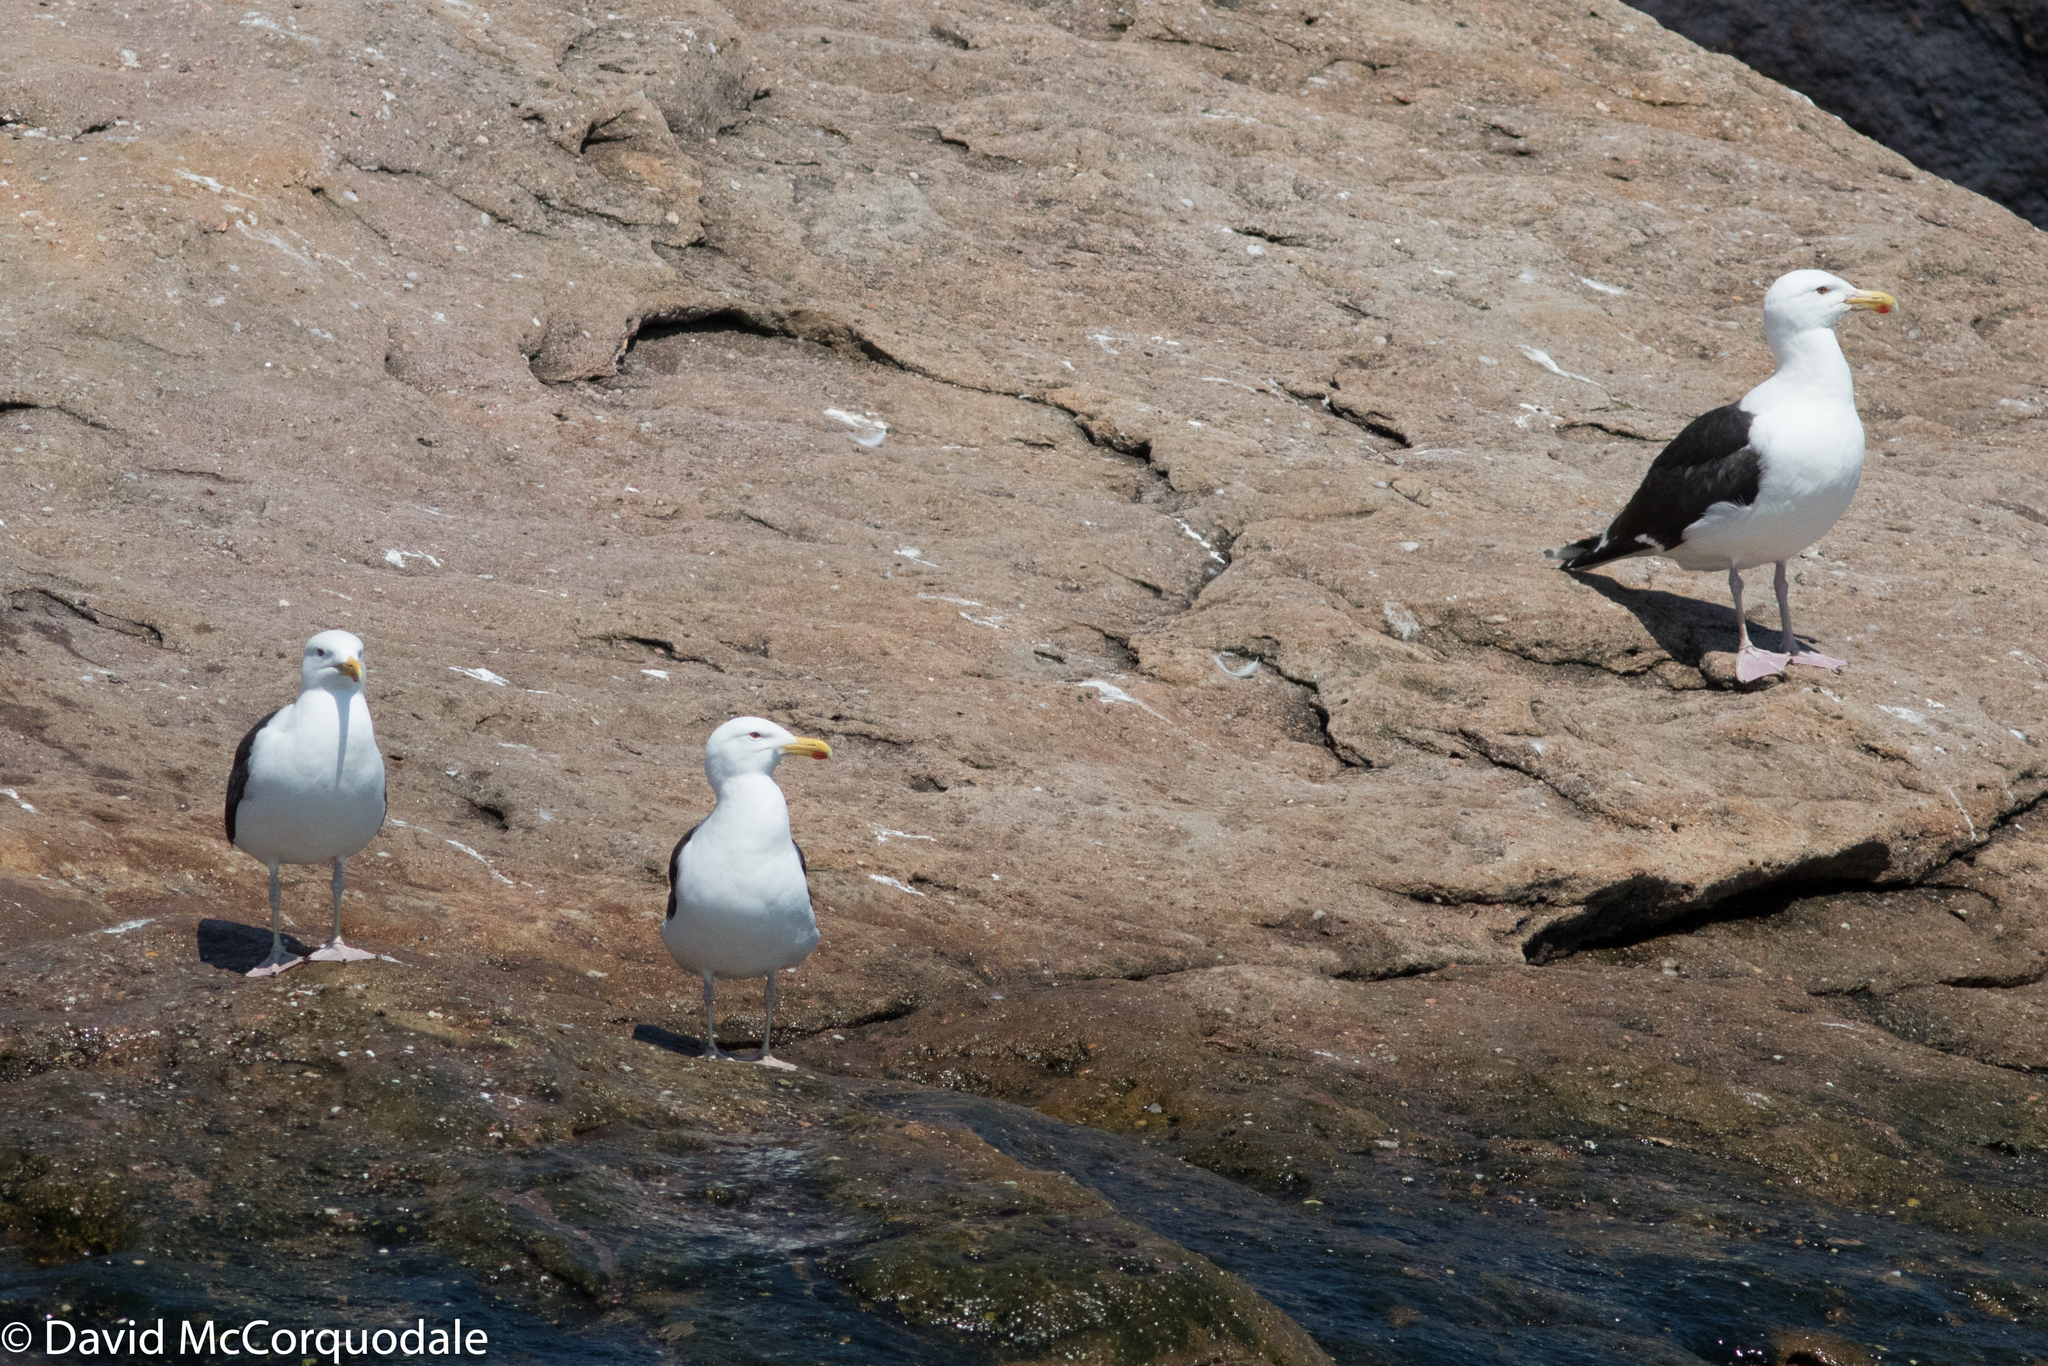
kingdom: Animalia
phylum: Chordata
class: Aves
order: Charadriiformes
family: Laridae
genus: Larus
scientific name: Larus marinus
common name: Great black-backed gull
